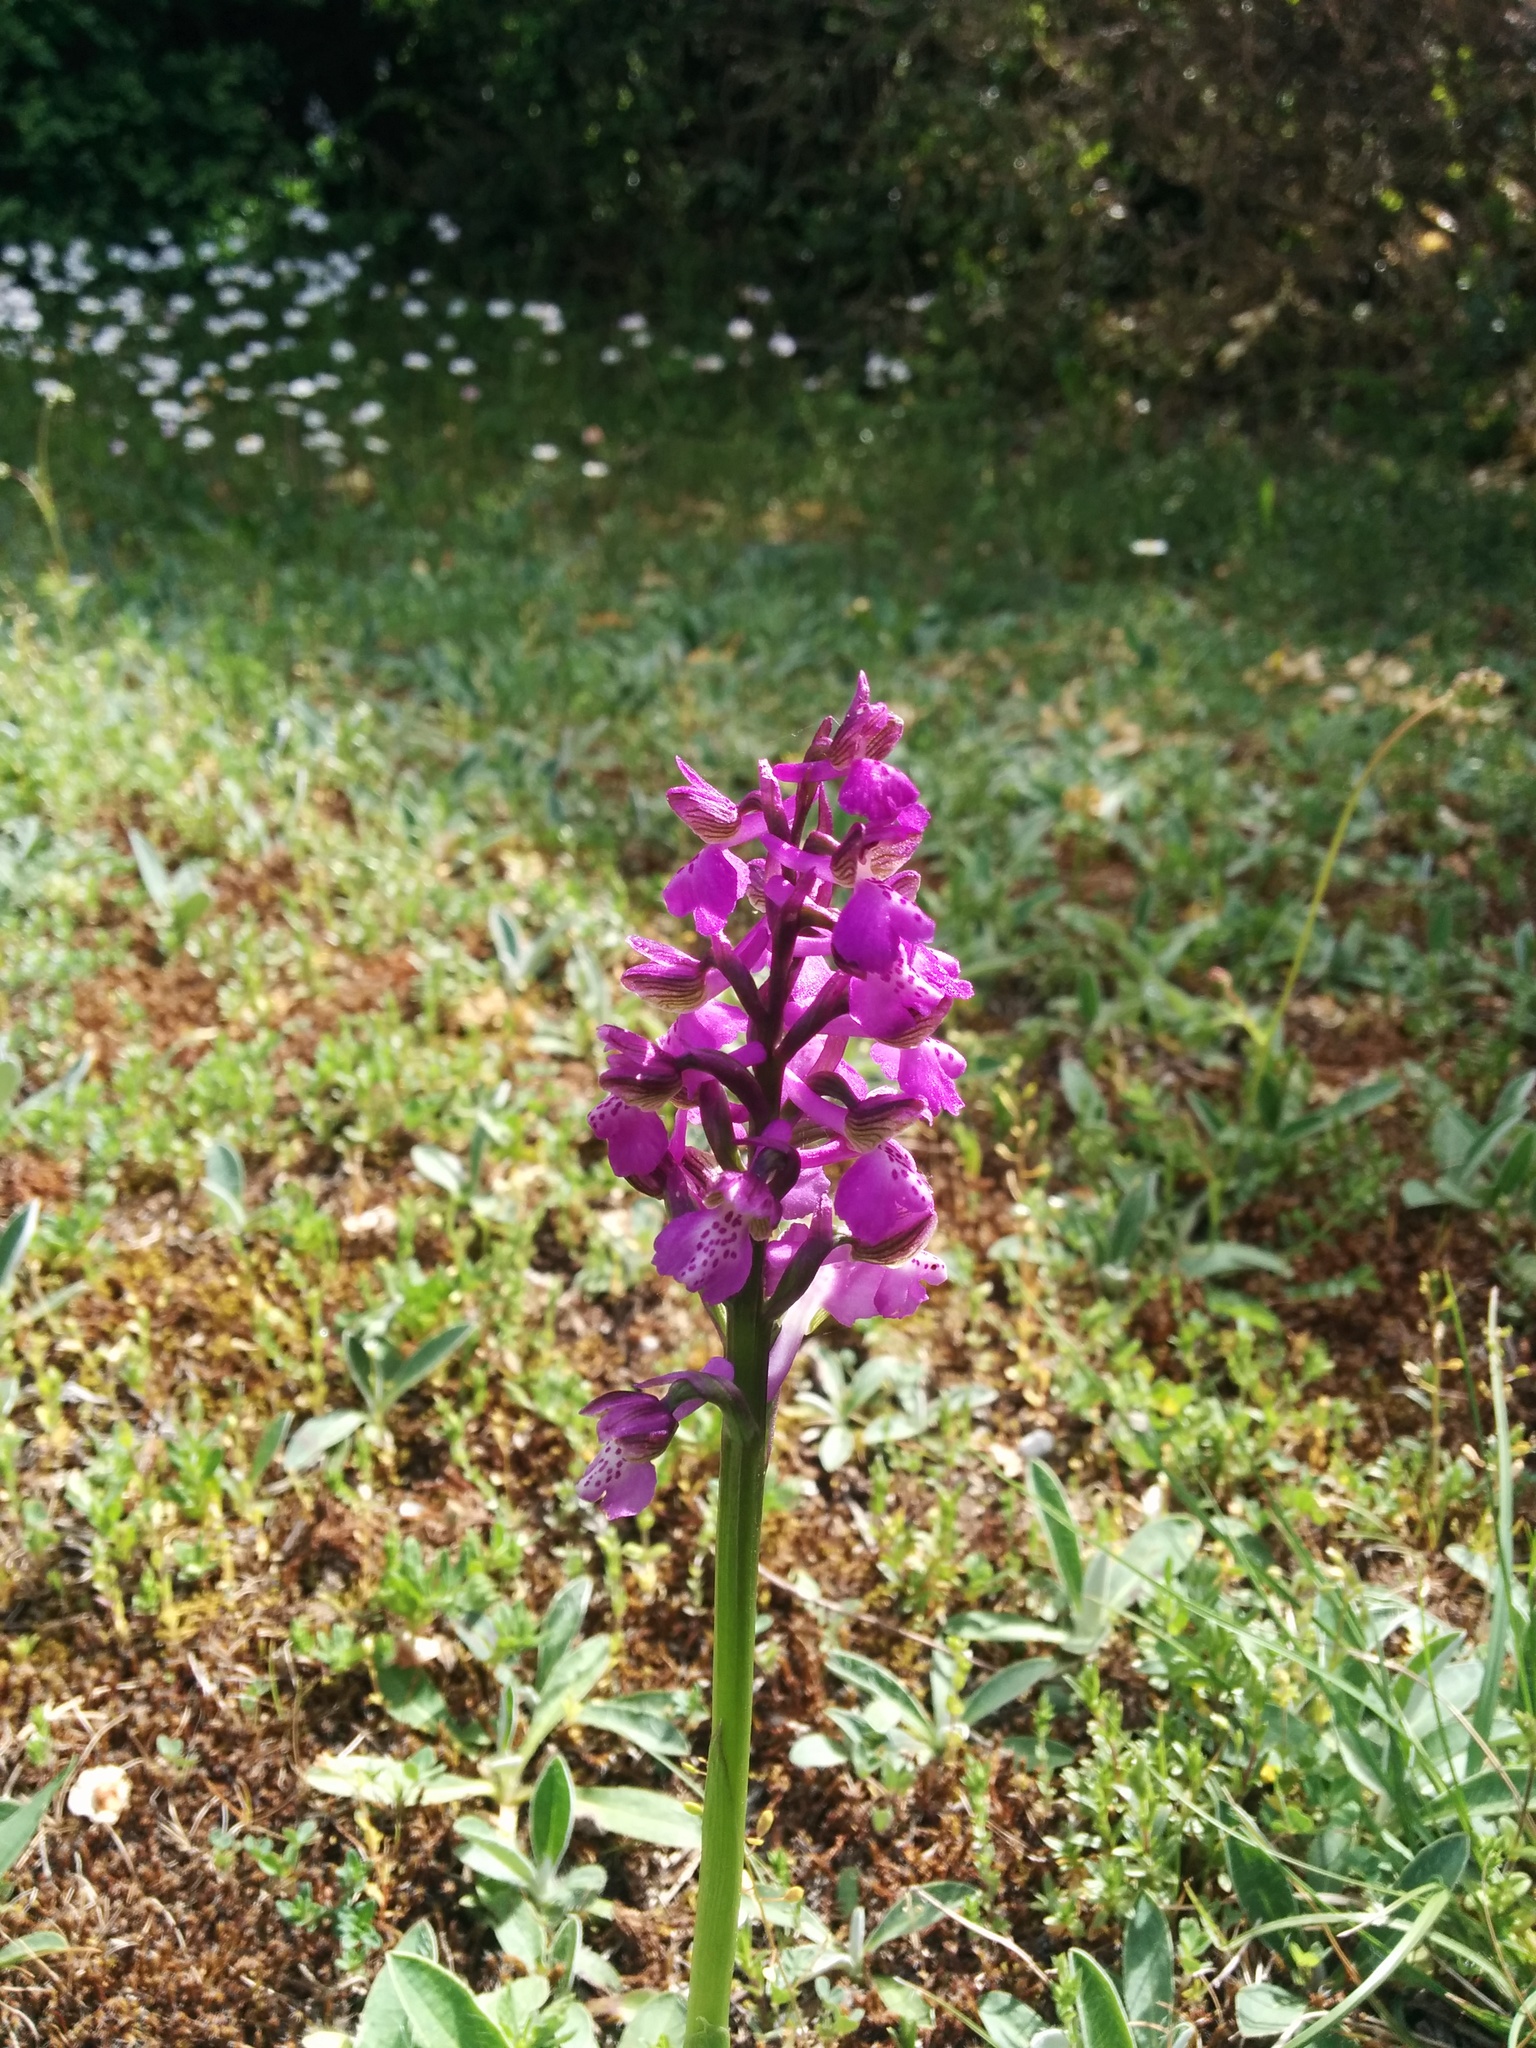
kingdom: Plantae
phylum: Tracheophyta
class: Liliopsida
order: Asparagales
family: Orchidaceae
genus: Anacamptis
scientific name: Anacamptis morio
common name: Green-winged orchid
